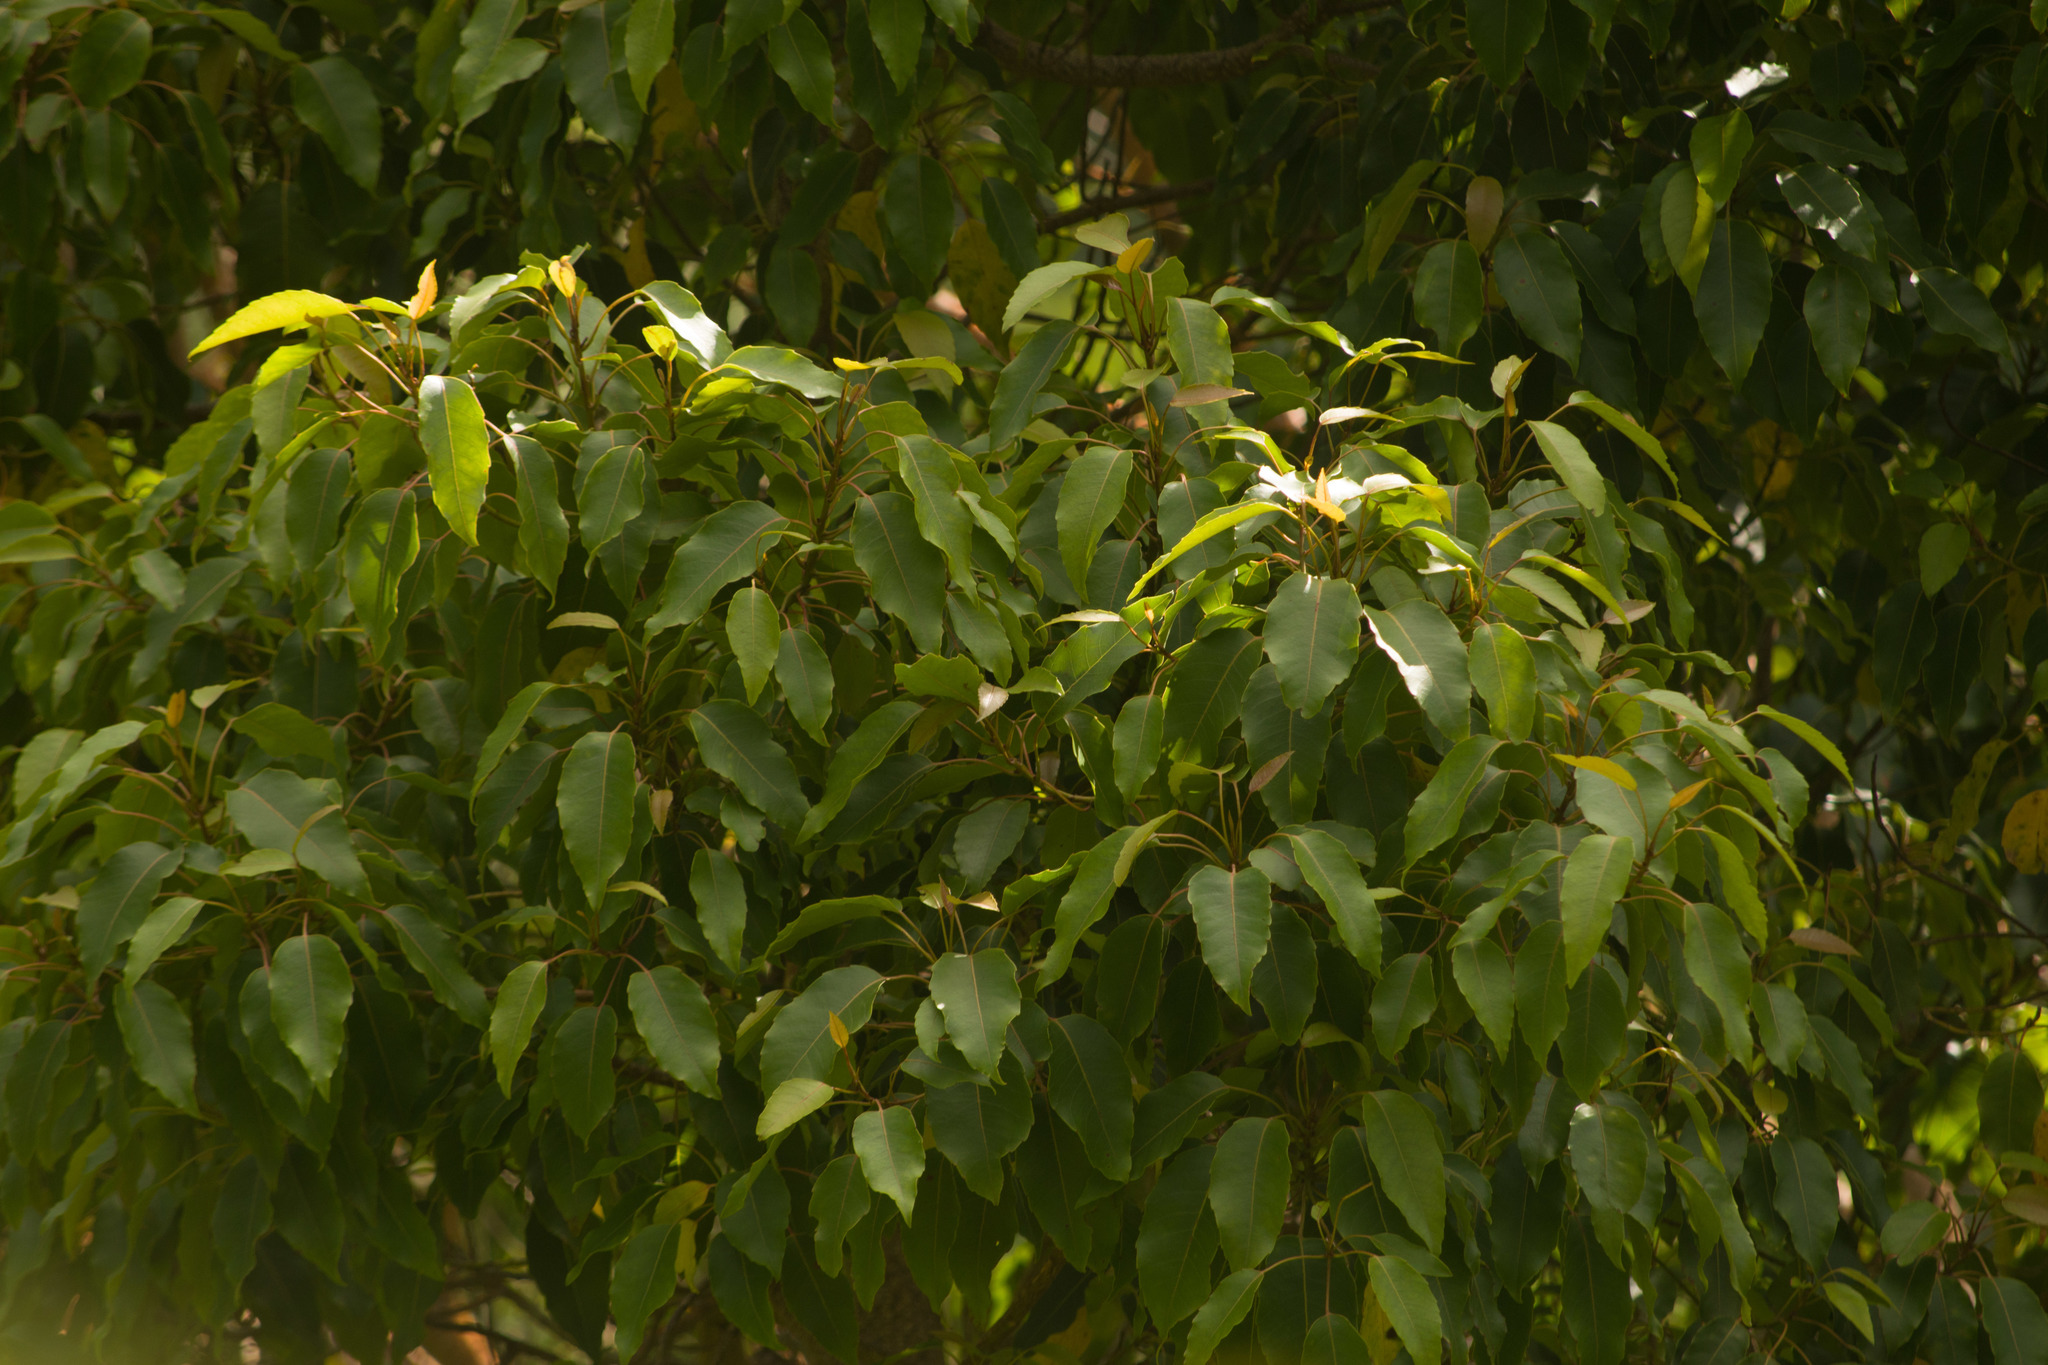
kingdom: Plantae
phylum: Tracheophyta
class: Magnoliopsida
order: Oxalidales
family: Elaeocarpaceae
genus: Elaeocarpus
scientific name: Elaeocarpus bifidus
